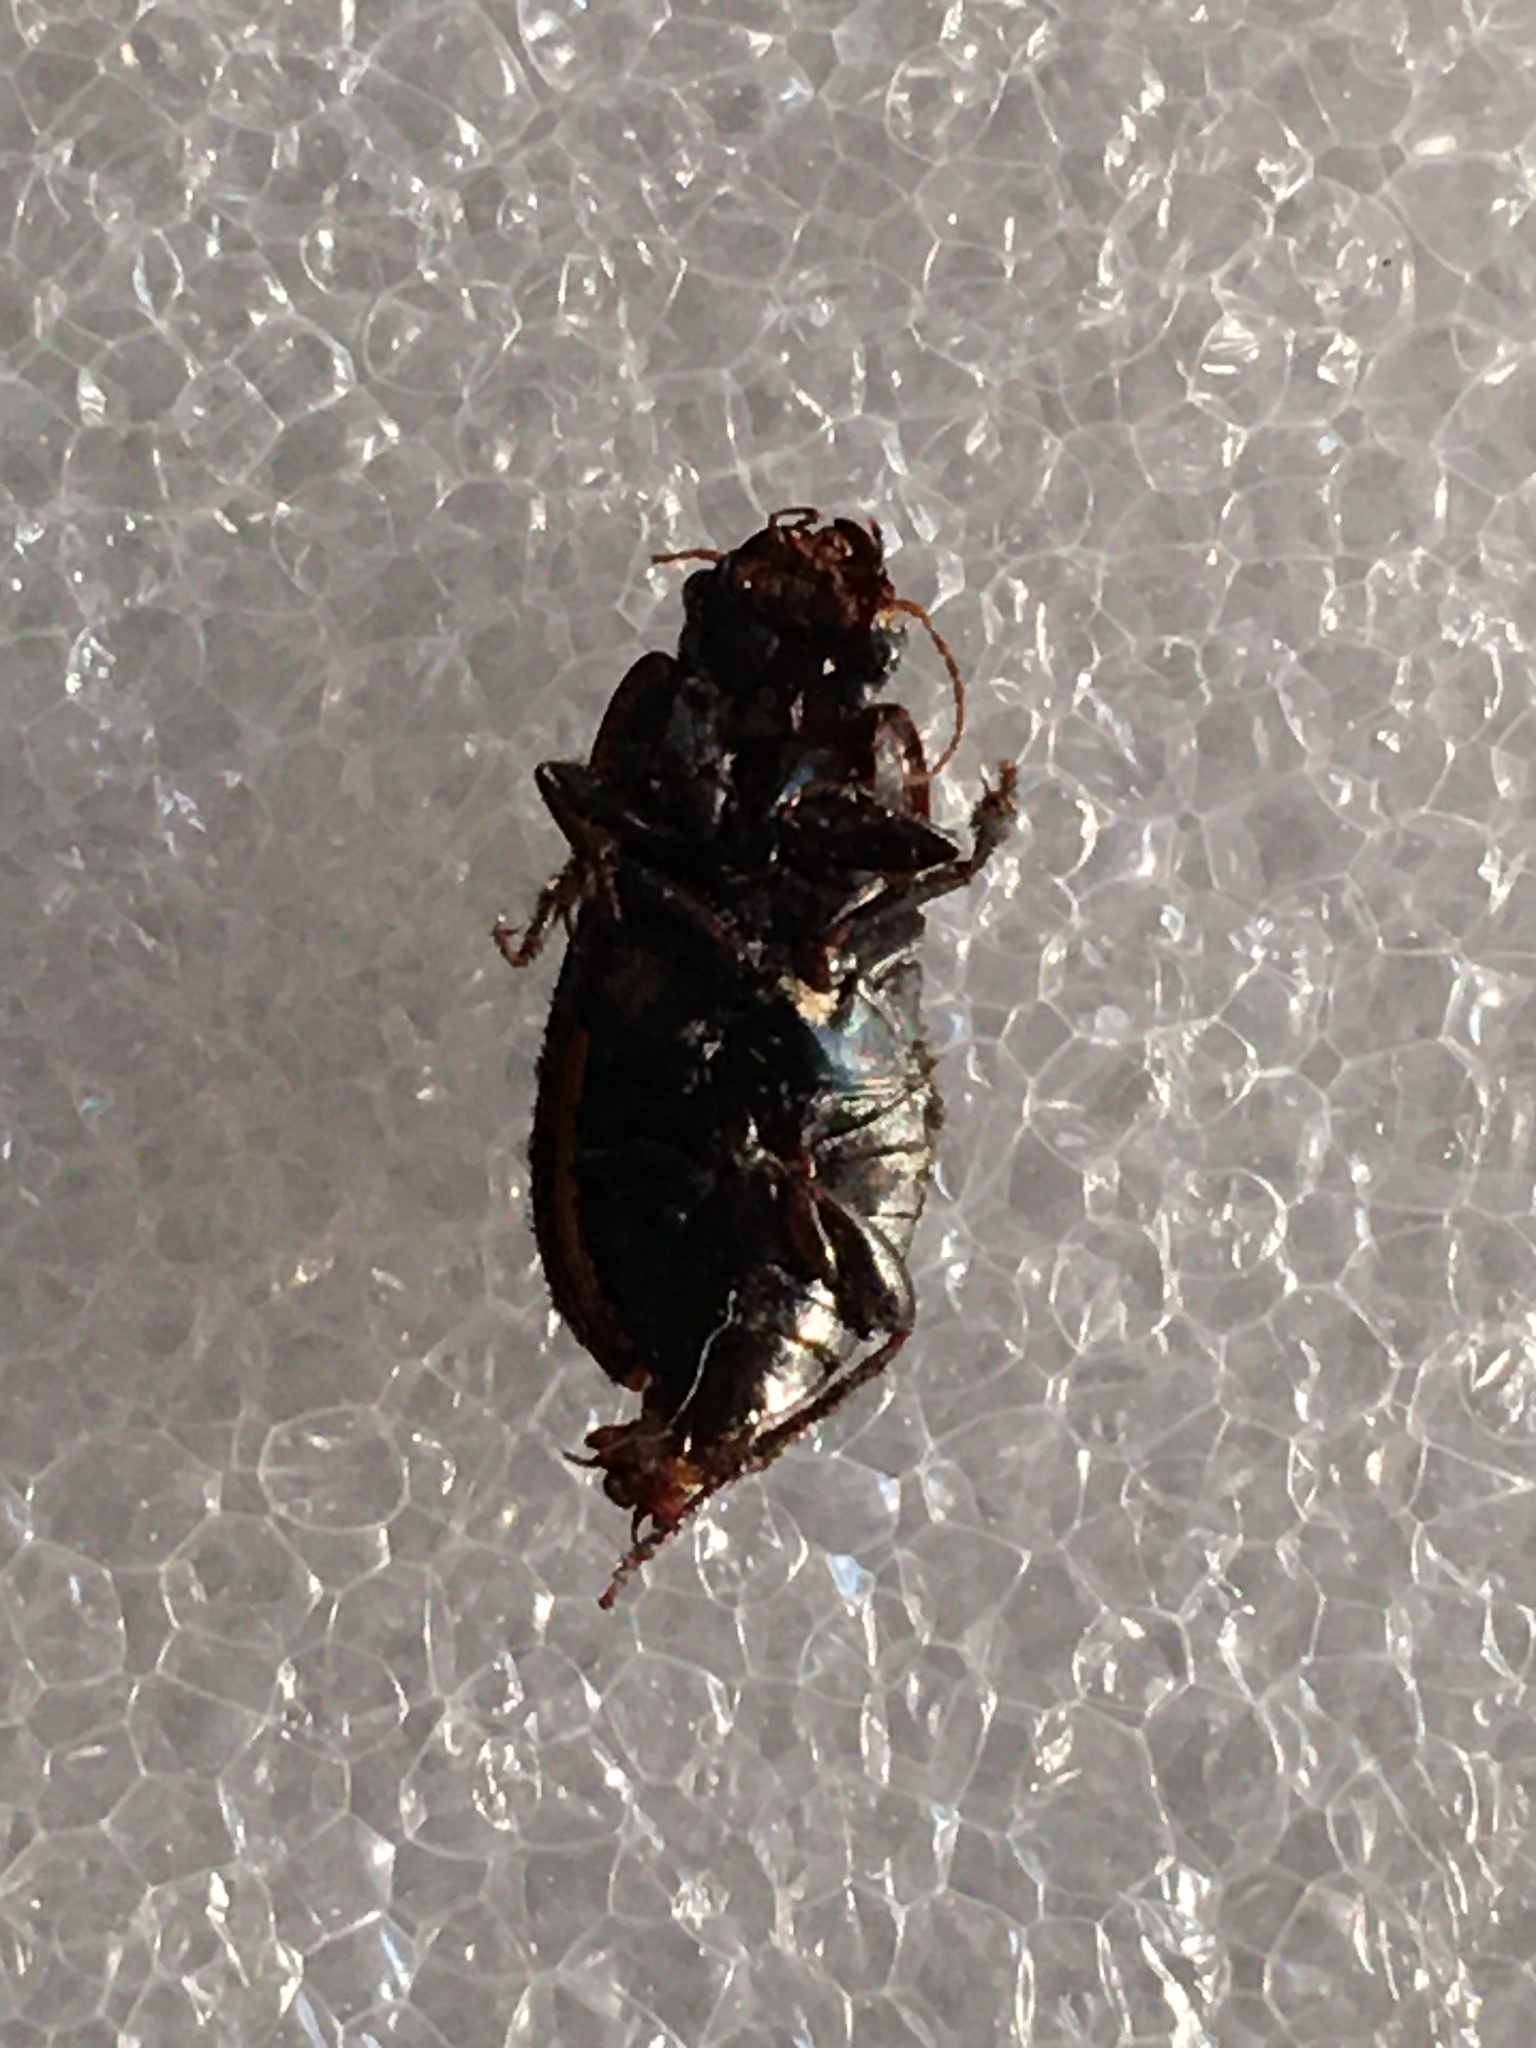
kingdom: Animalia
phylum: Arthropoda
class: Insecta
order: Coleoptera
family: Carabidae
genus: Anisodactylus
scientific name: Anisodactylus rusticus
